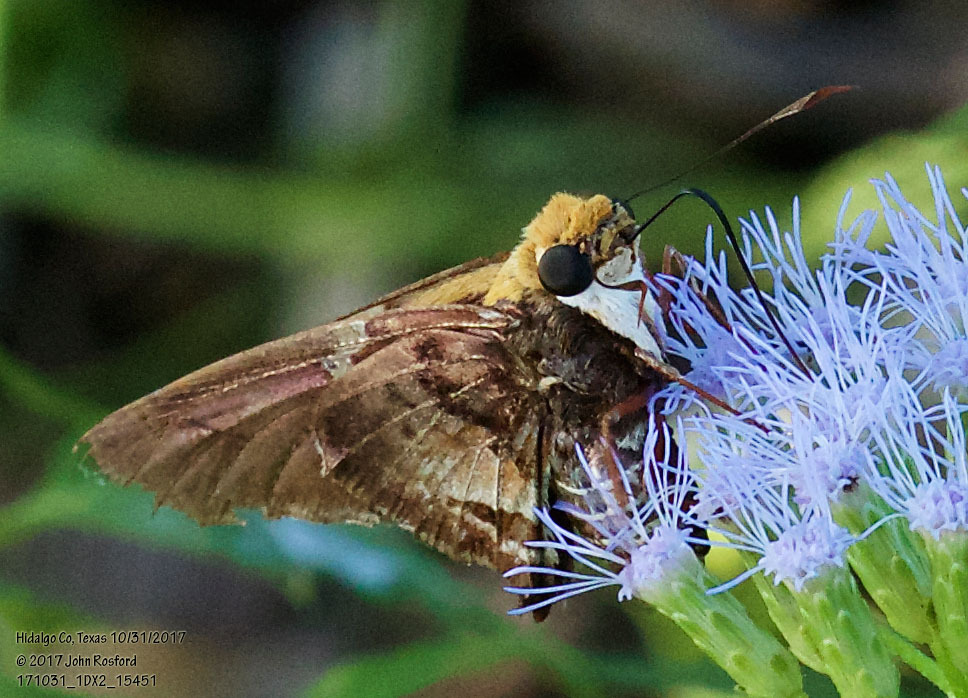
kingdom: Animalia
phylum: Arthropoda
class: Insecta
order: Lepidoptera
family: Hesperiidae
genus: Proteides
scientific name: Proteides mercurius
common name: Mercurial skipper
